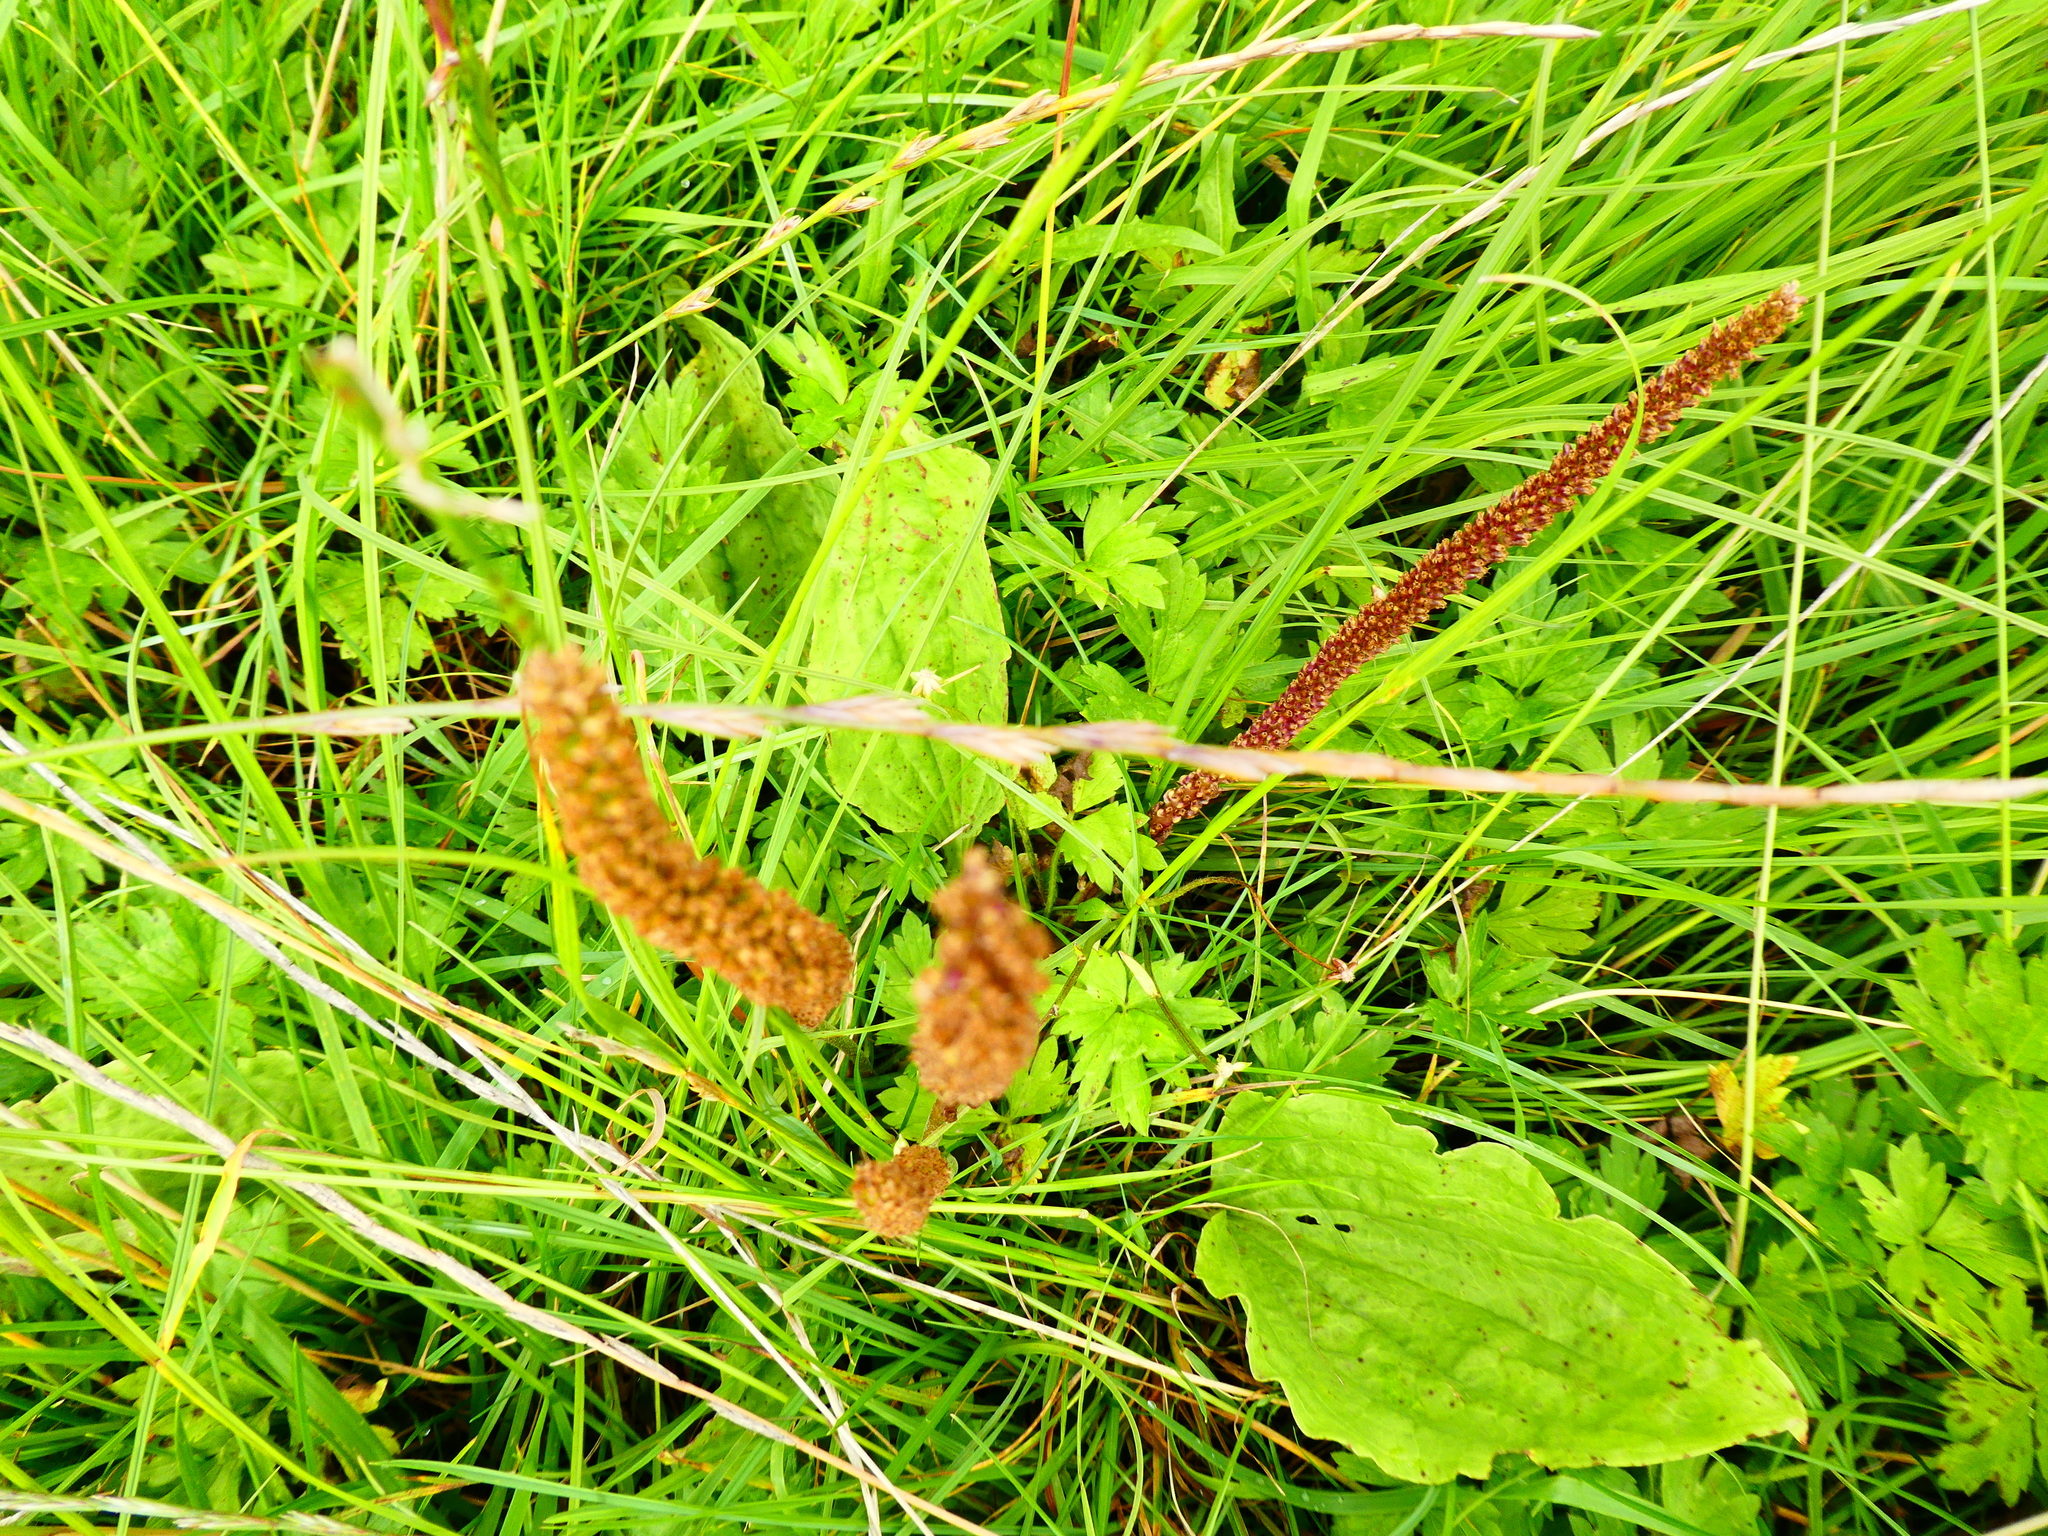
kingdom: Plantae
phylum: Tracheophyta
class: Magnoliopsida
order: Lamiales
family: Plantaginaceae
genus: Plantago
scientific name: Plantago major
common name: Common plantain
